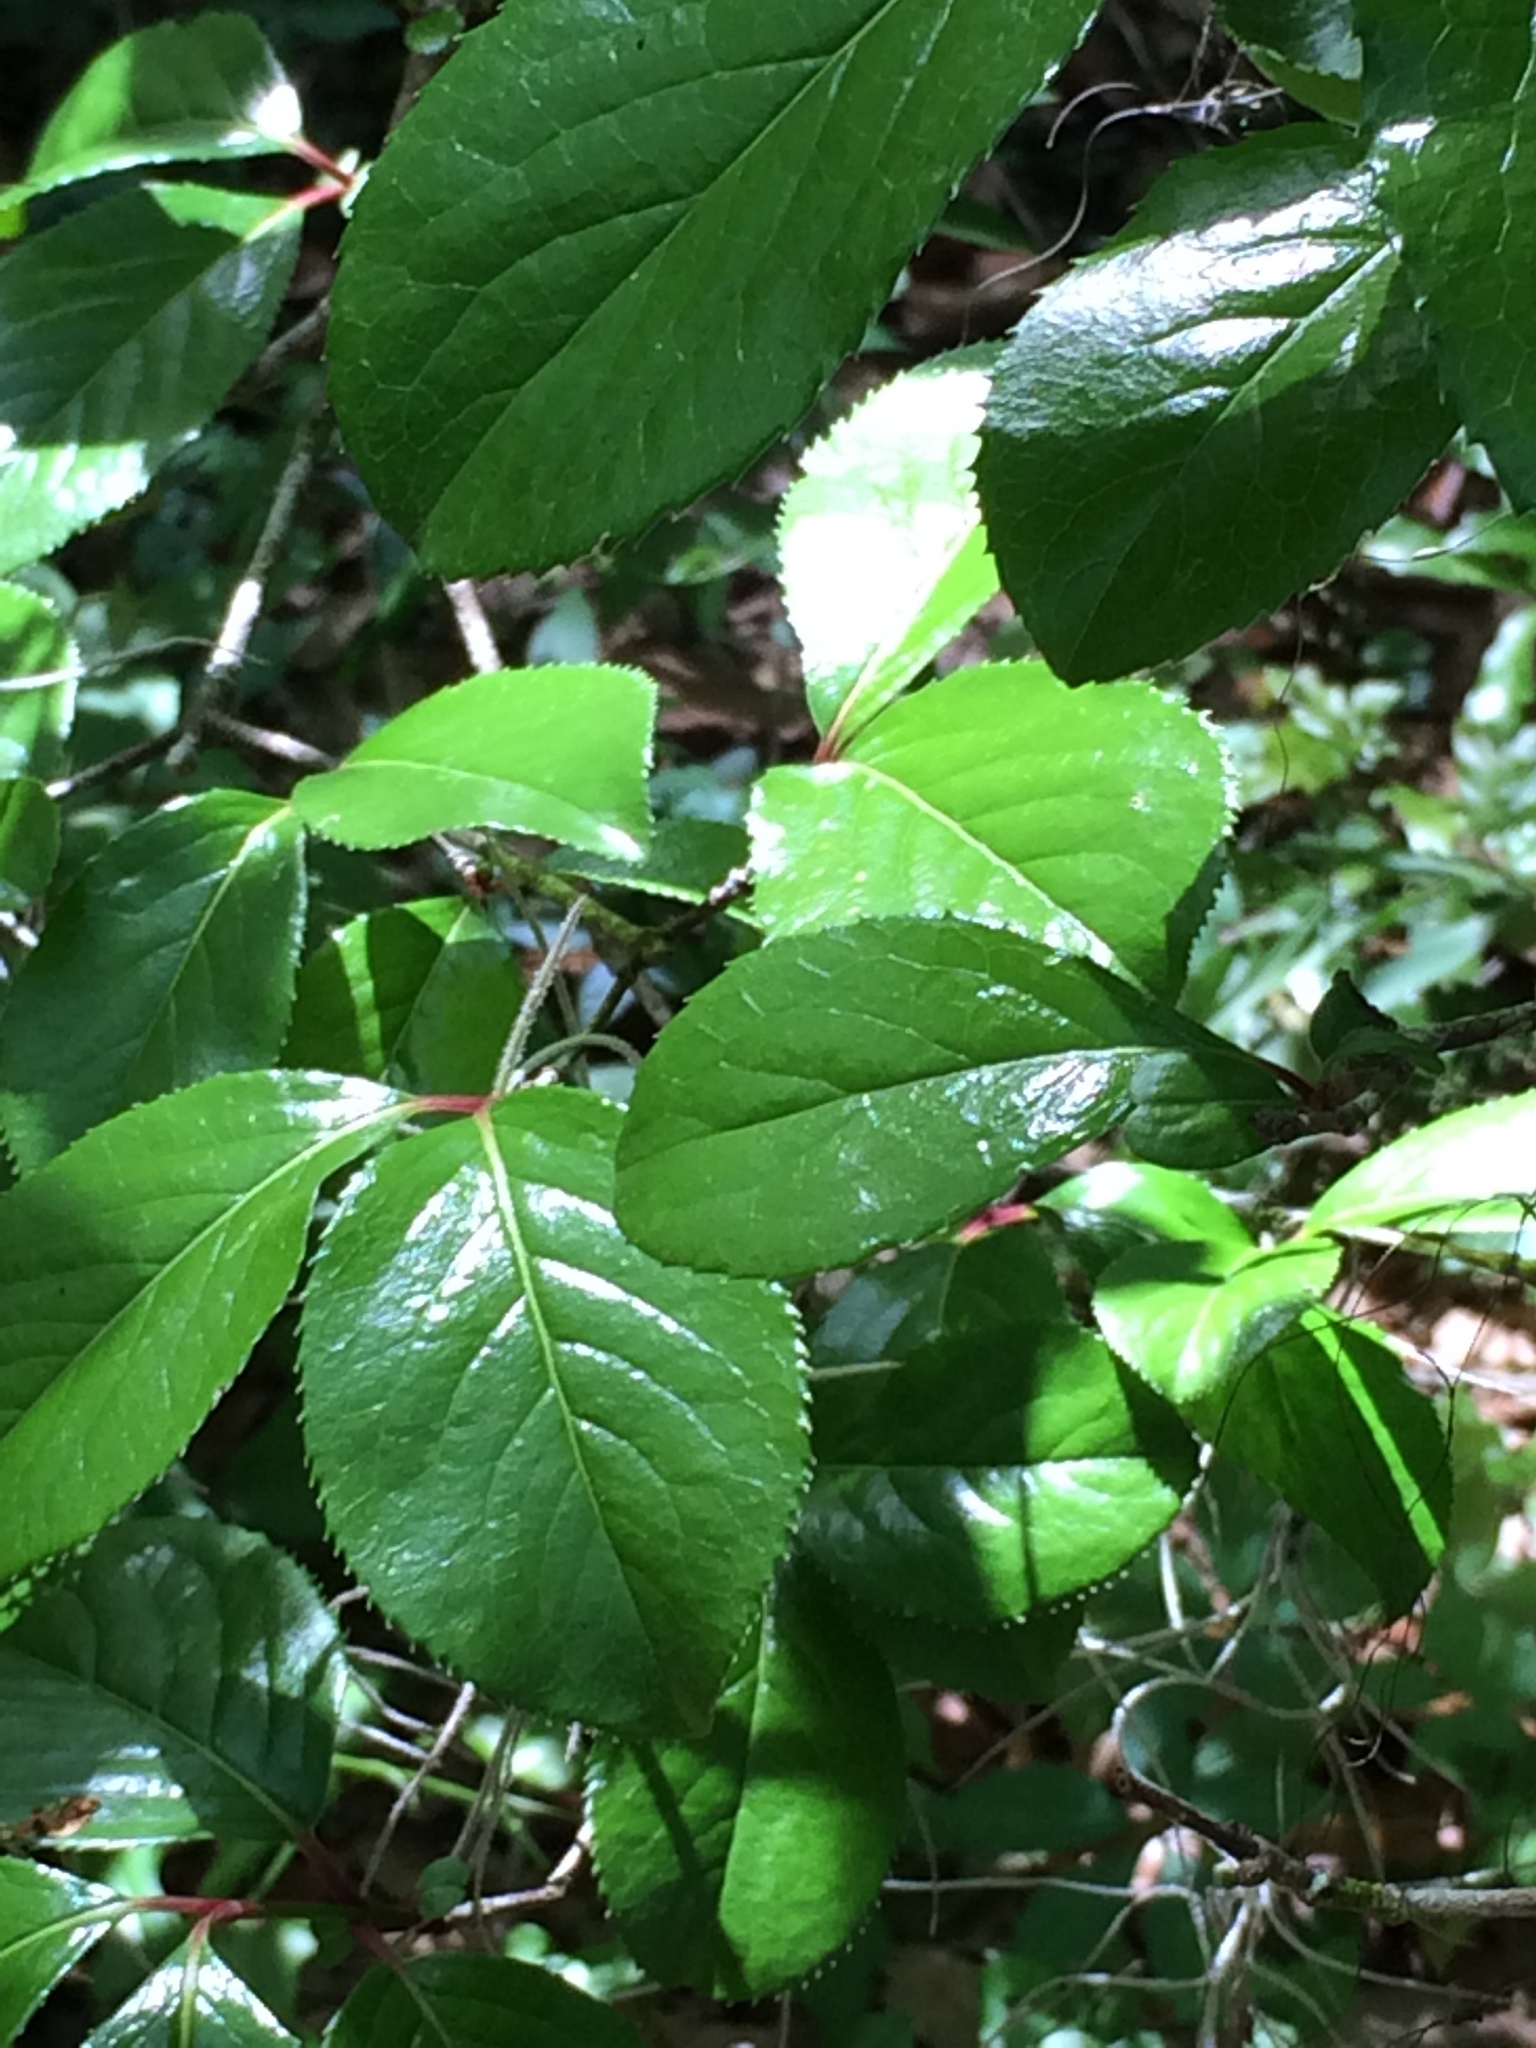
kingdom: Plantae
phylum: Tracheophyta
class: Magnoliopsida
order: Dipsacales
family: Viburnaceae
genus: Viburnum
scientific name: Viburnum rufidulum
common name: Blue haw
